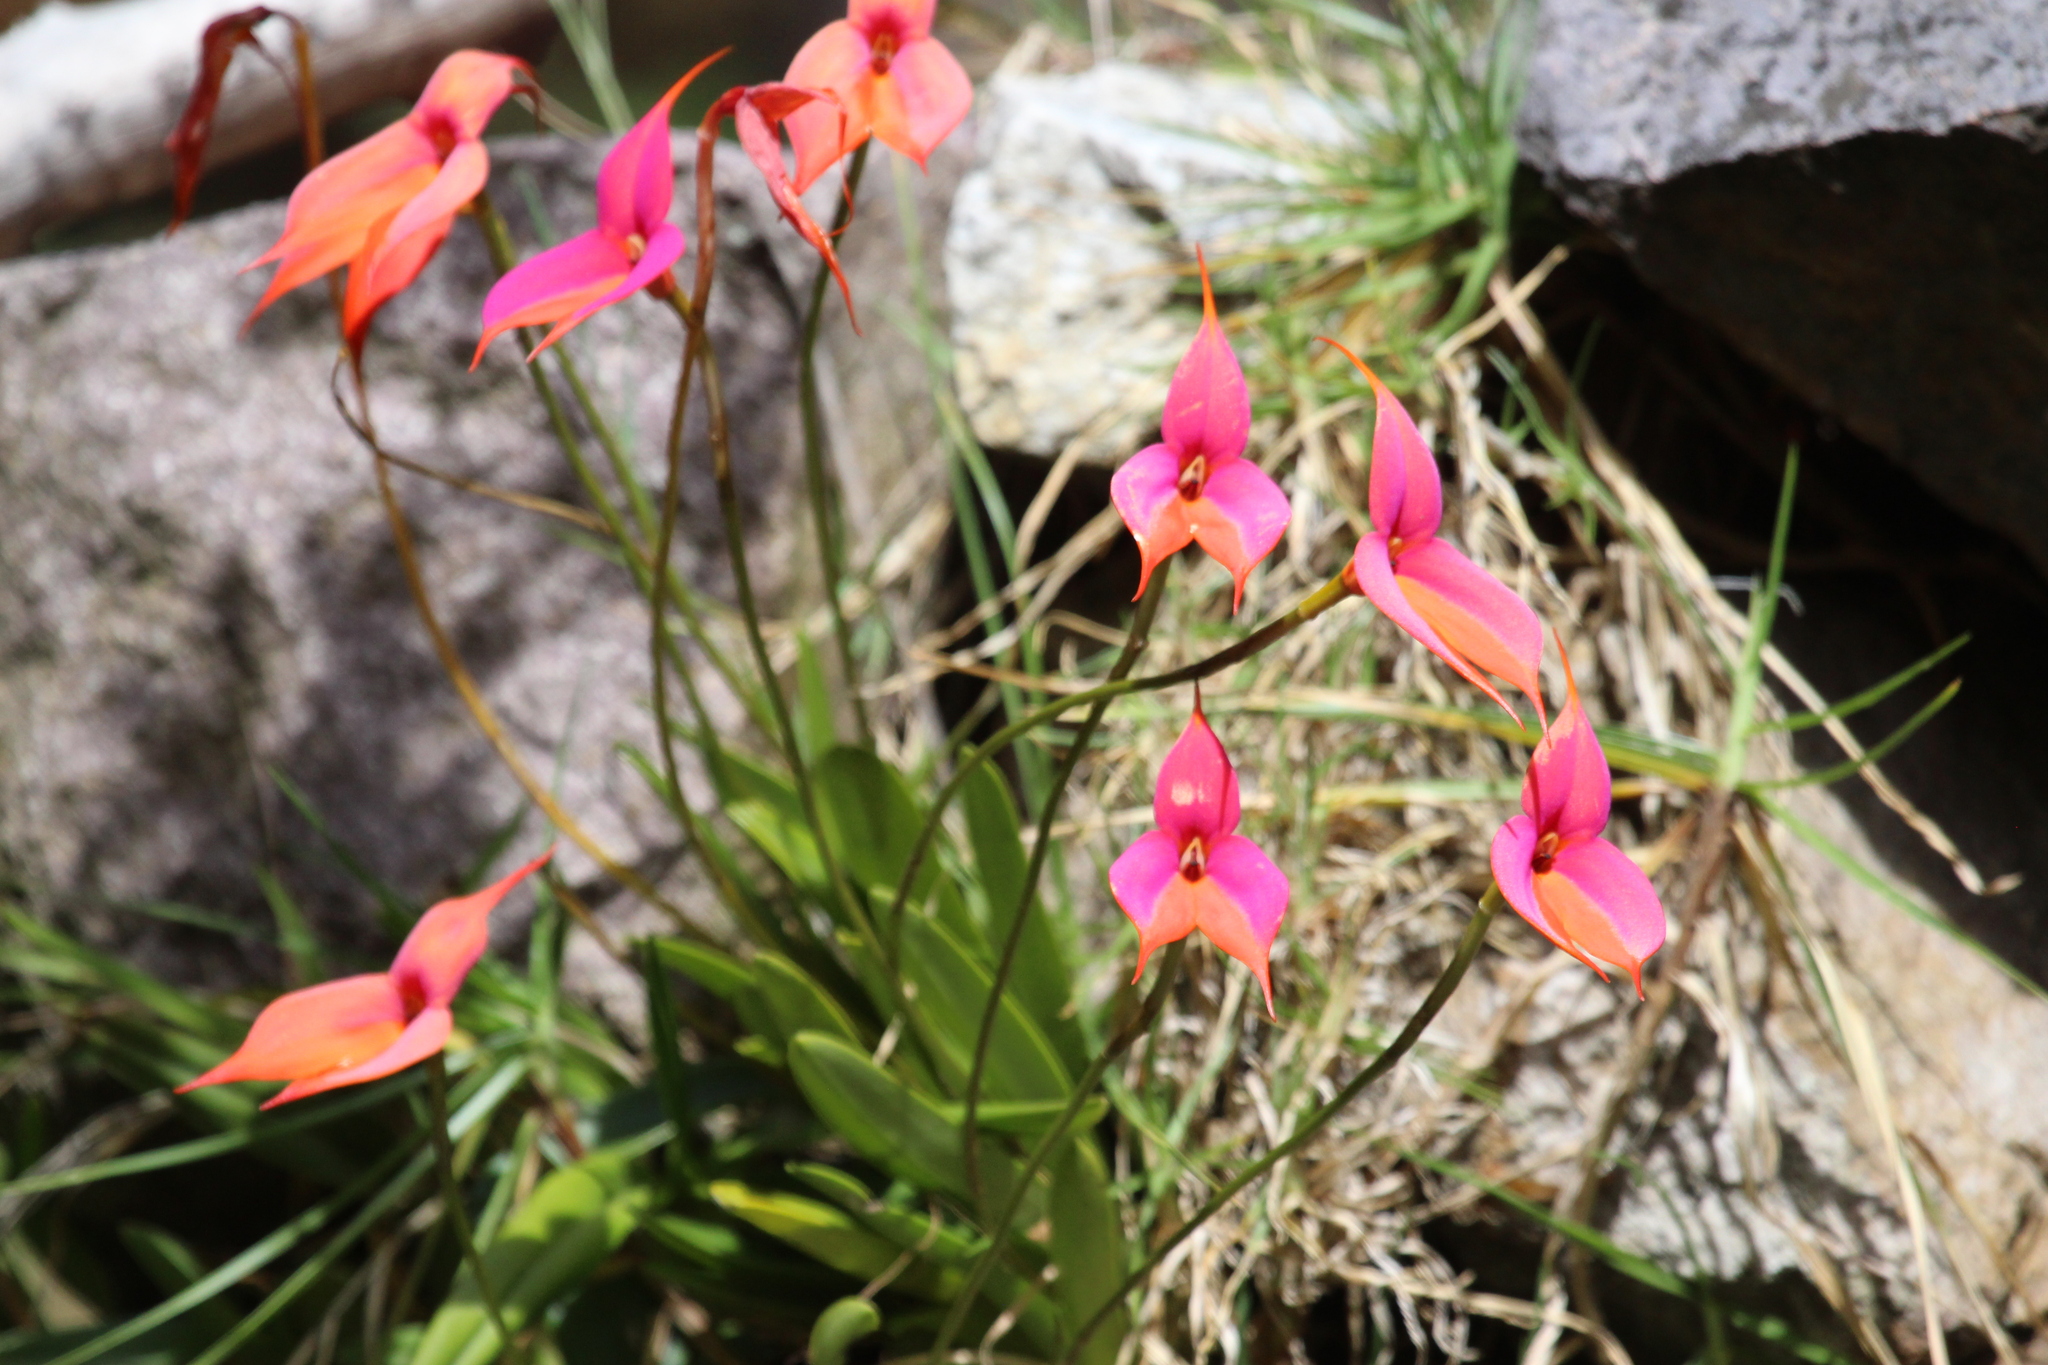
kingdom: Plantae
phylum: Tracheophyta
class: Liliopsida
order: Asparagales
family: Orchidaceae
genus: Masdevallia
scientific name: Masdevallia veitchiana
